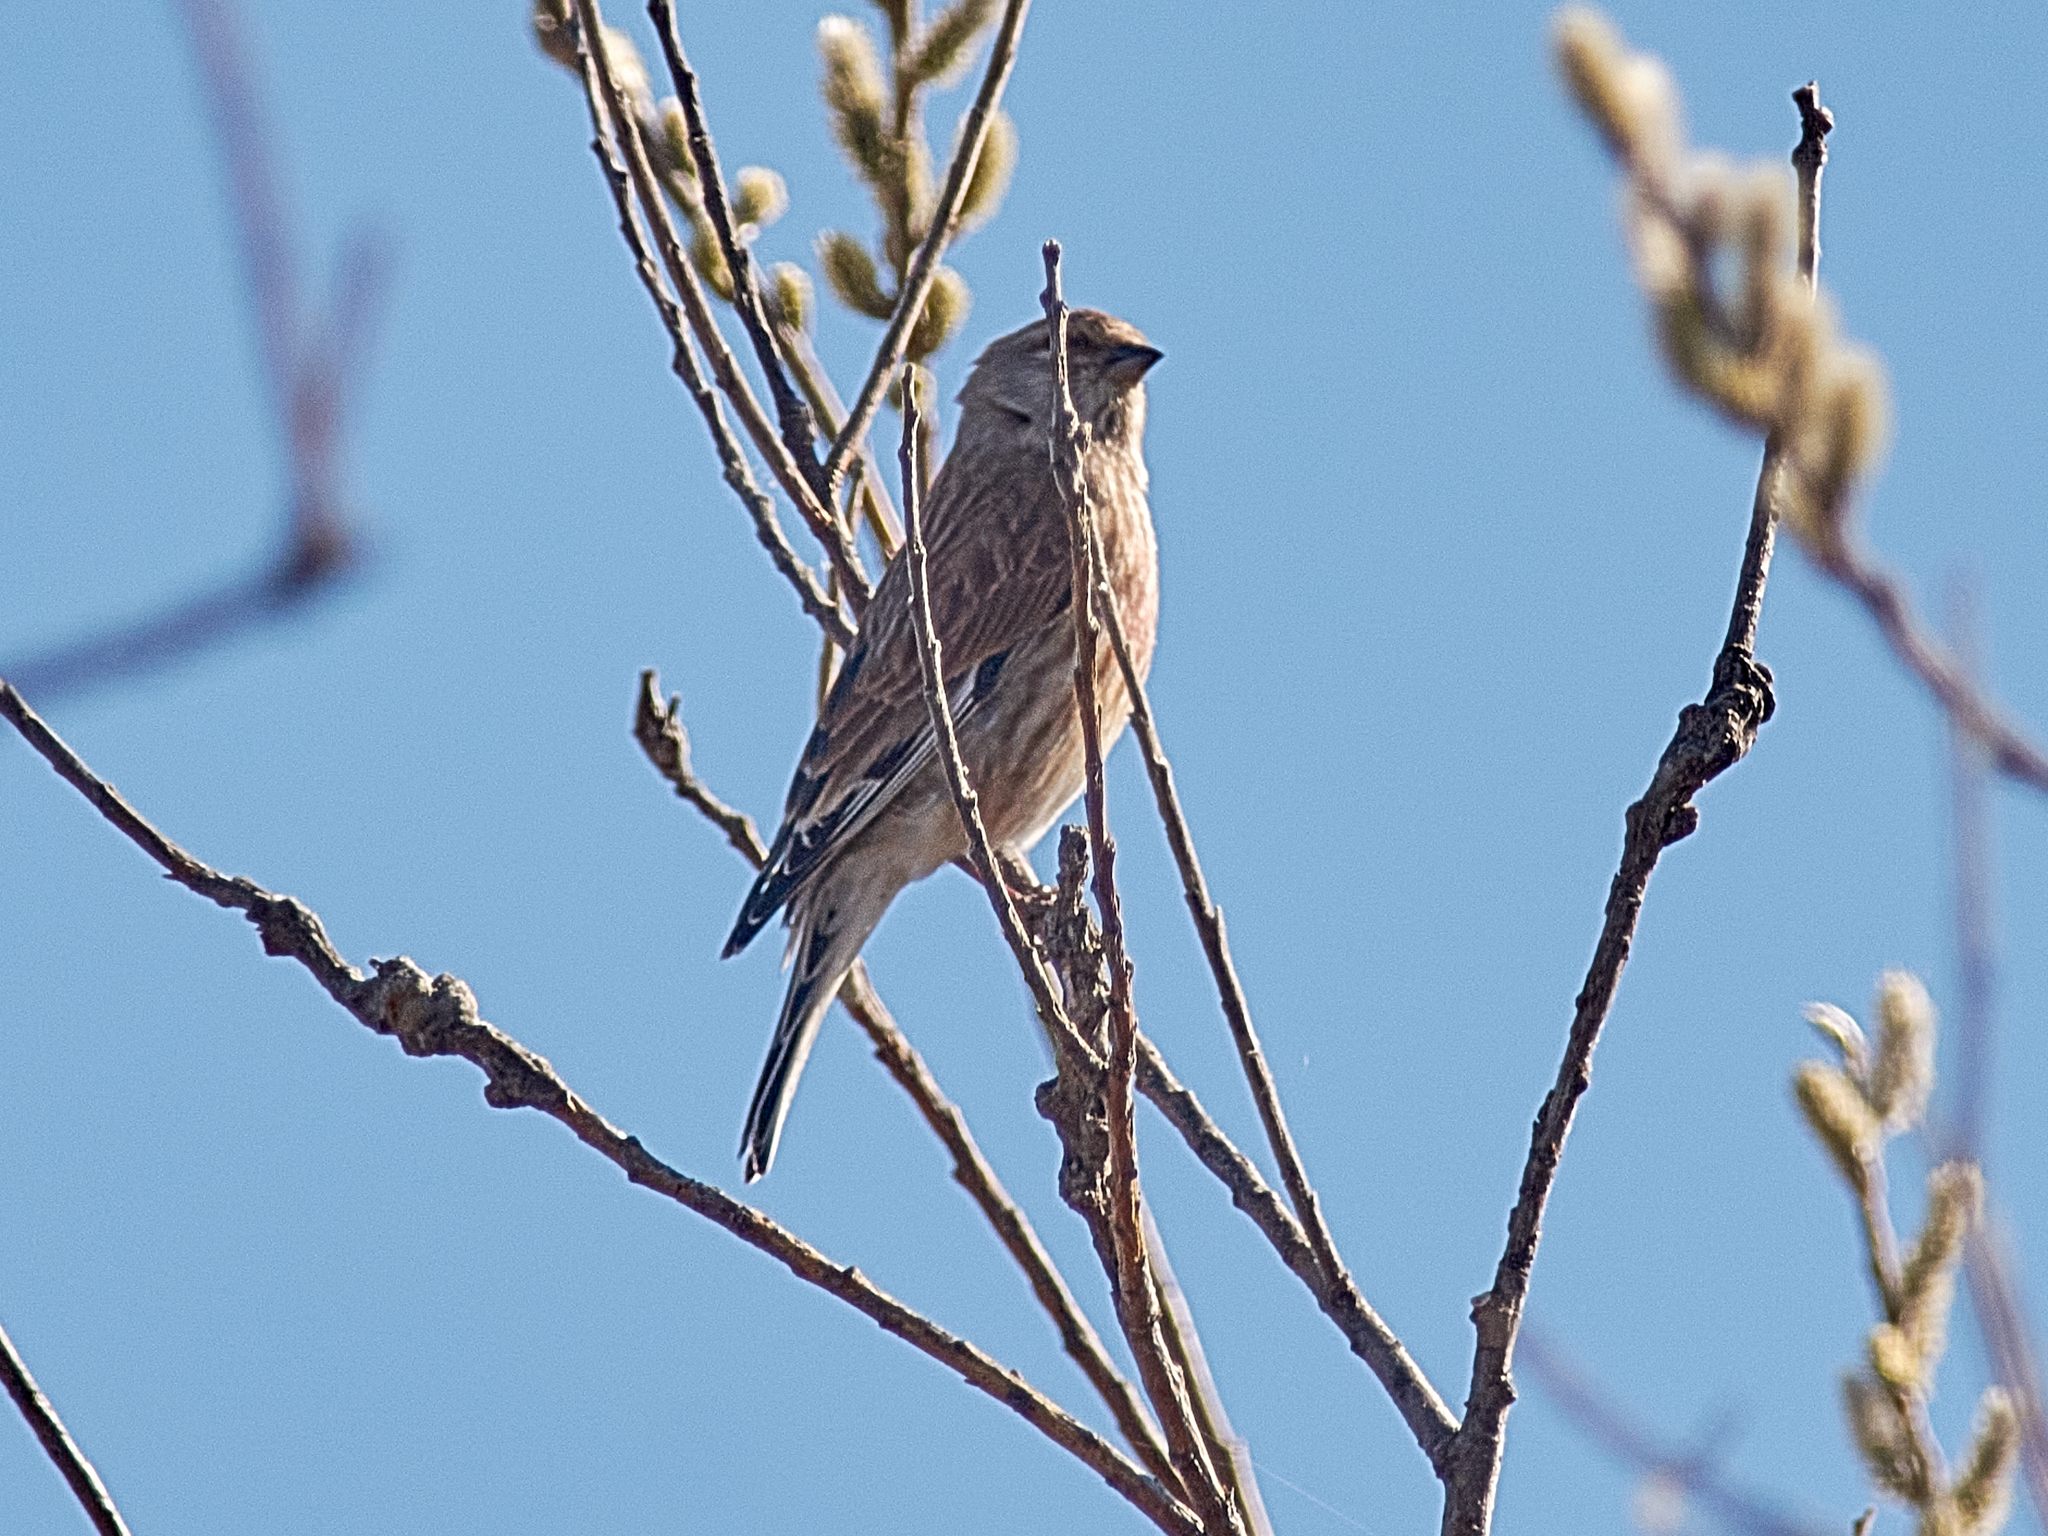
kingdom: Animalia
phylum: Chordata
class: Aves
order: Passeriformes
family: Fringillidae
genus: Linaria
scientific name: Linaria cannabina
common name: Common linnet
